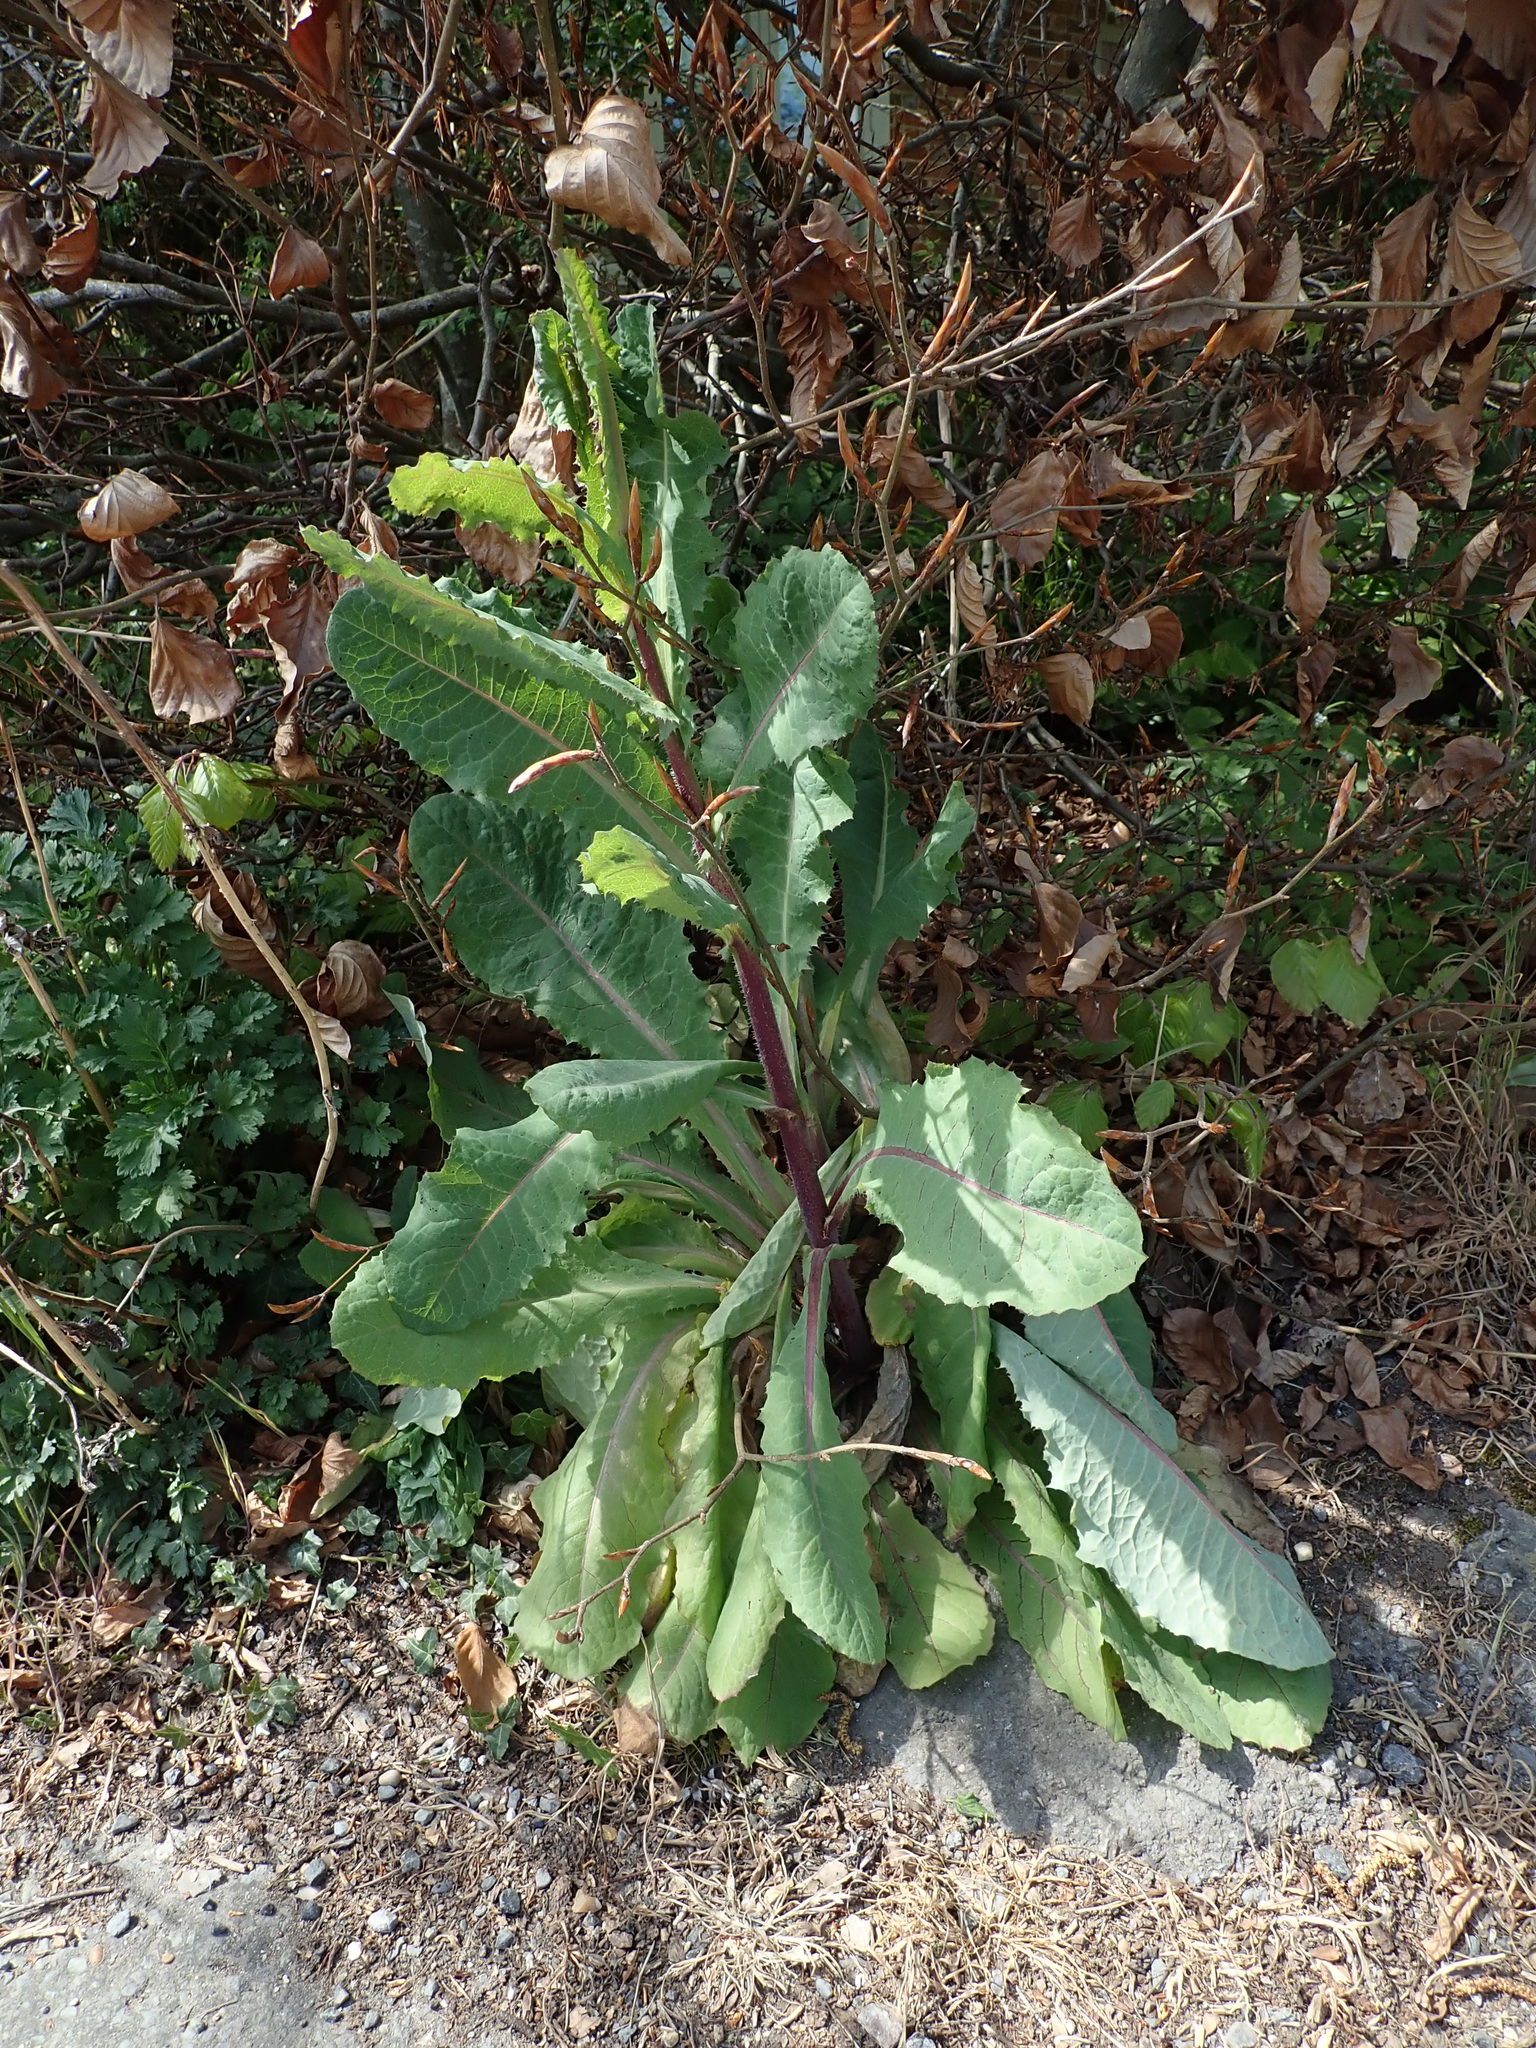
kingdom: Plantae
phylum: Tracheophyta
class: Magnoliopsida
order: Asterales
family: Asteraceae
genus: Lactuca
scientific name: Lactuca virosa
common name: Great lettuce
